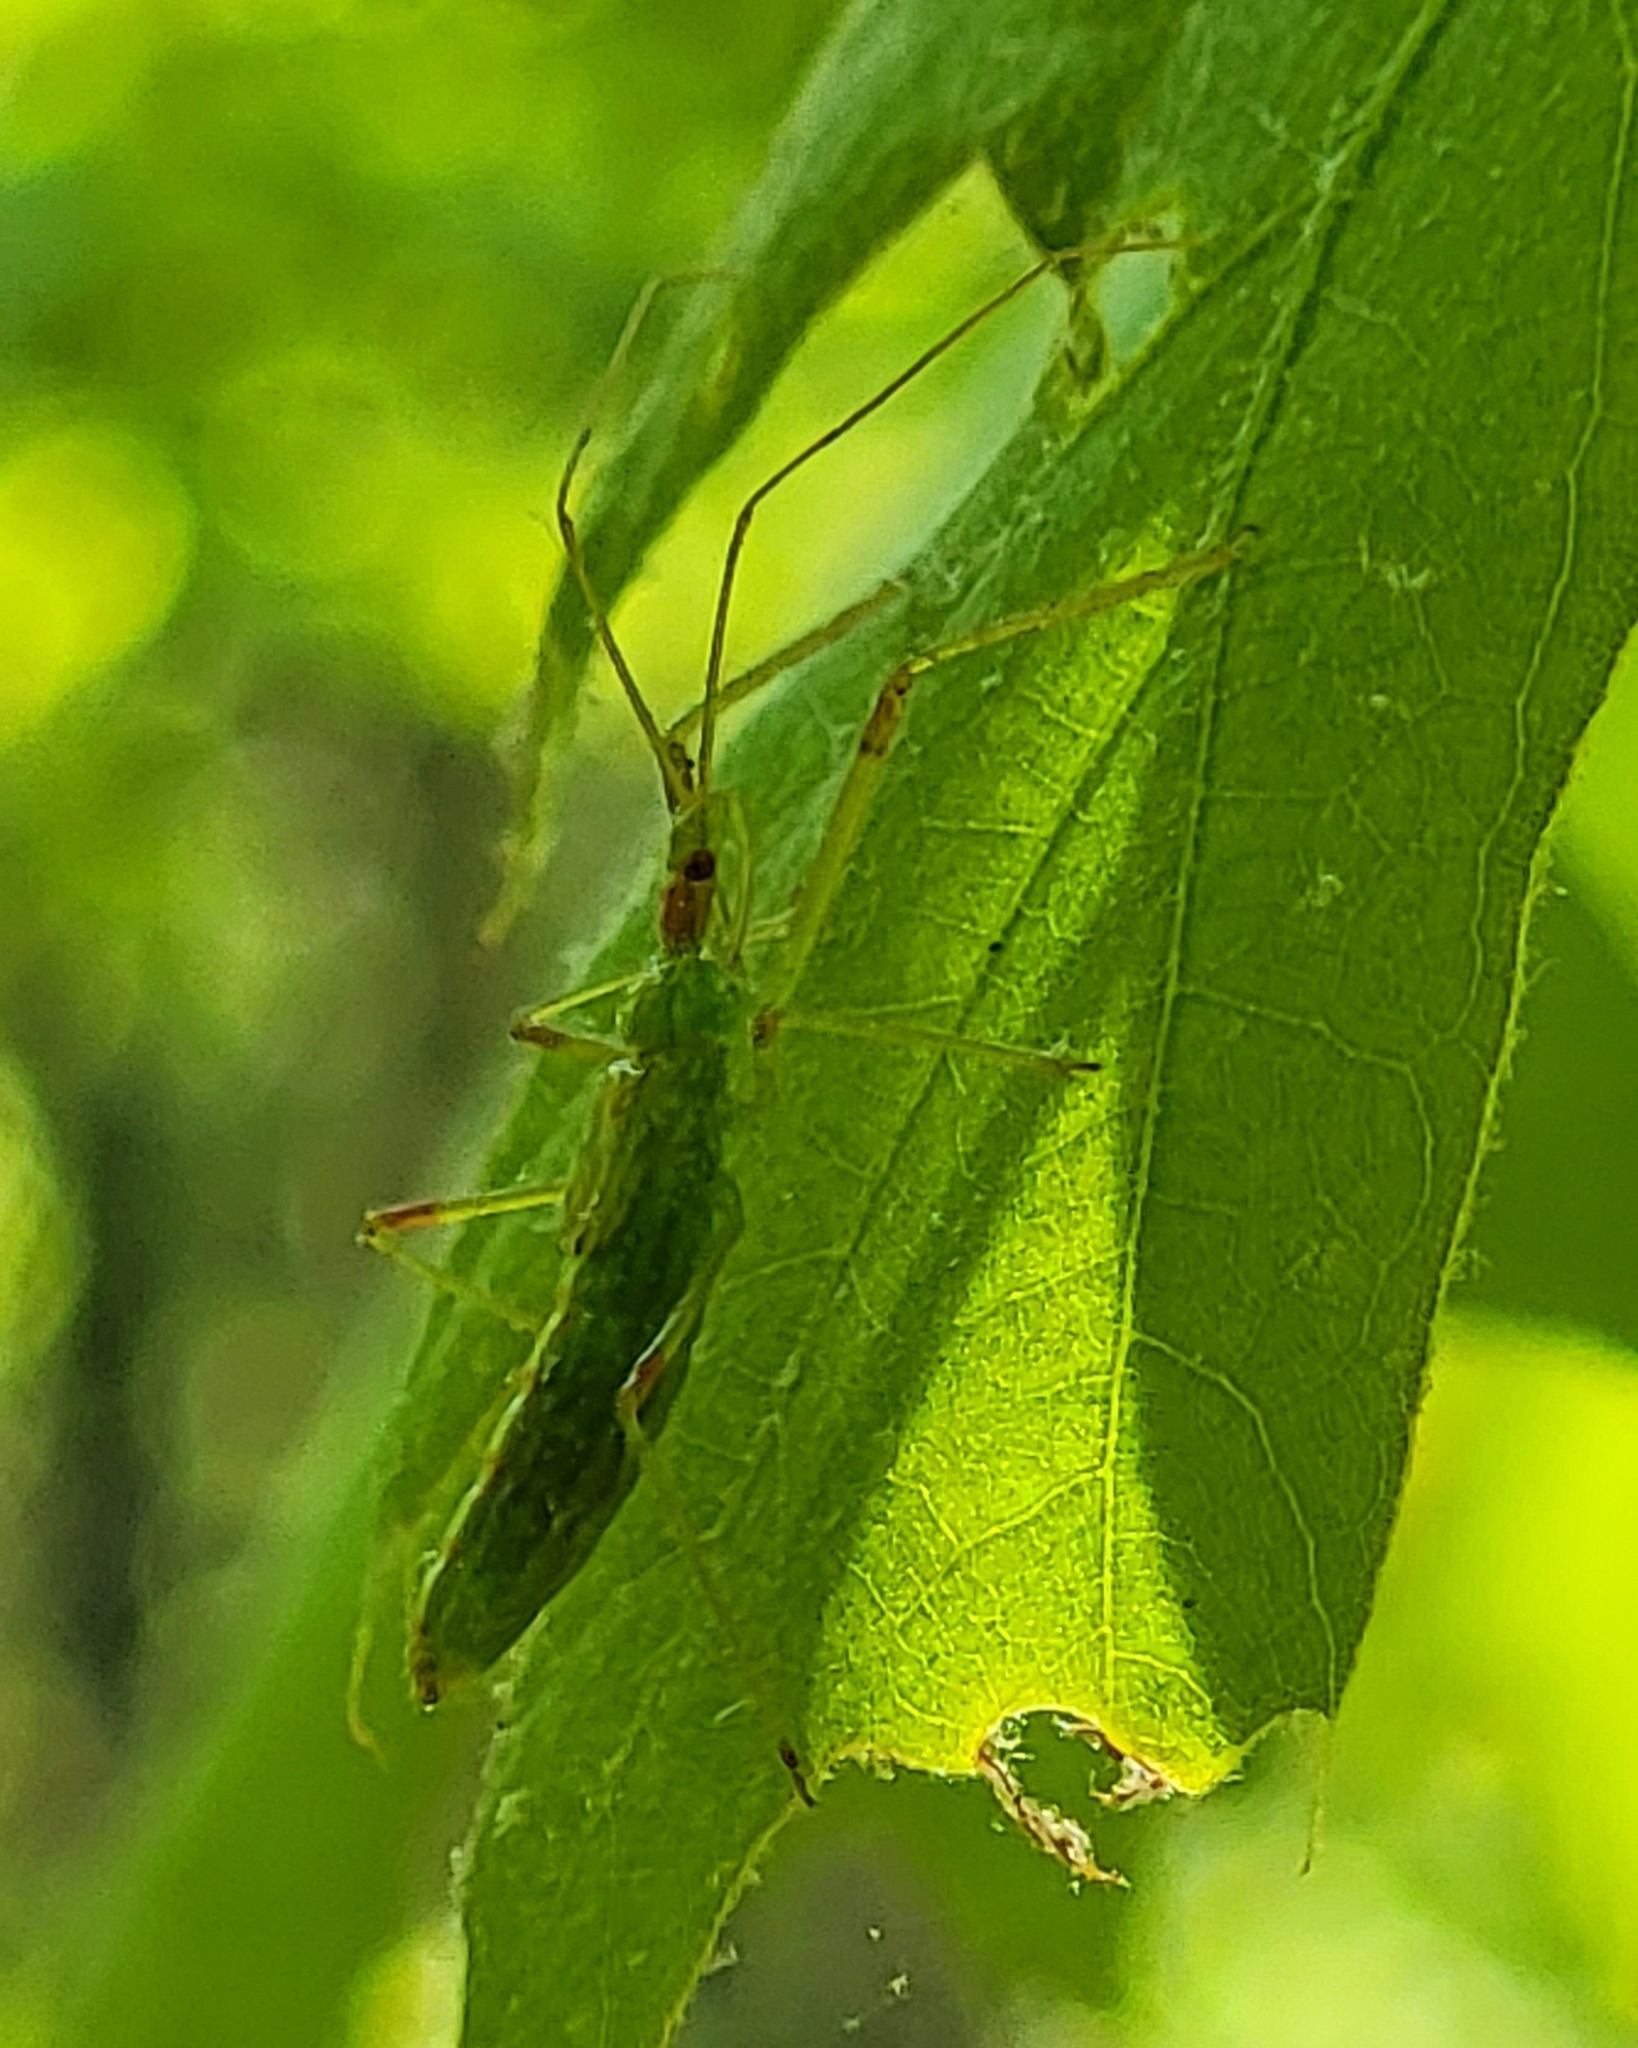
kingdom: Animalia
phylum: Arthropoda
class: Insecta
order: Hemiptera
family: Reduviidae
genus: Zelus
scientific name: Zelus luridus
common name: Pale green assassin bug
